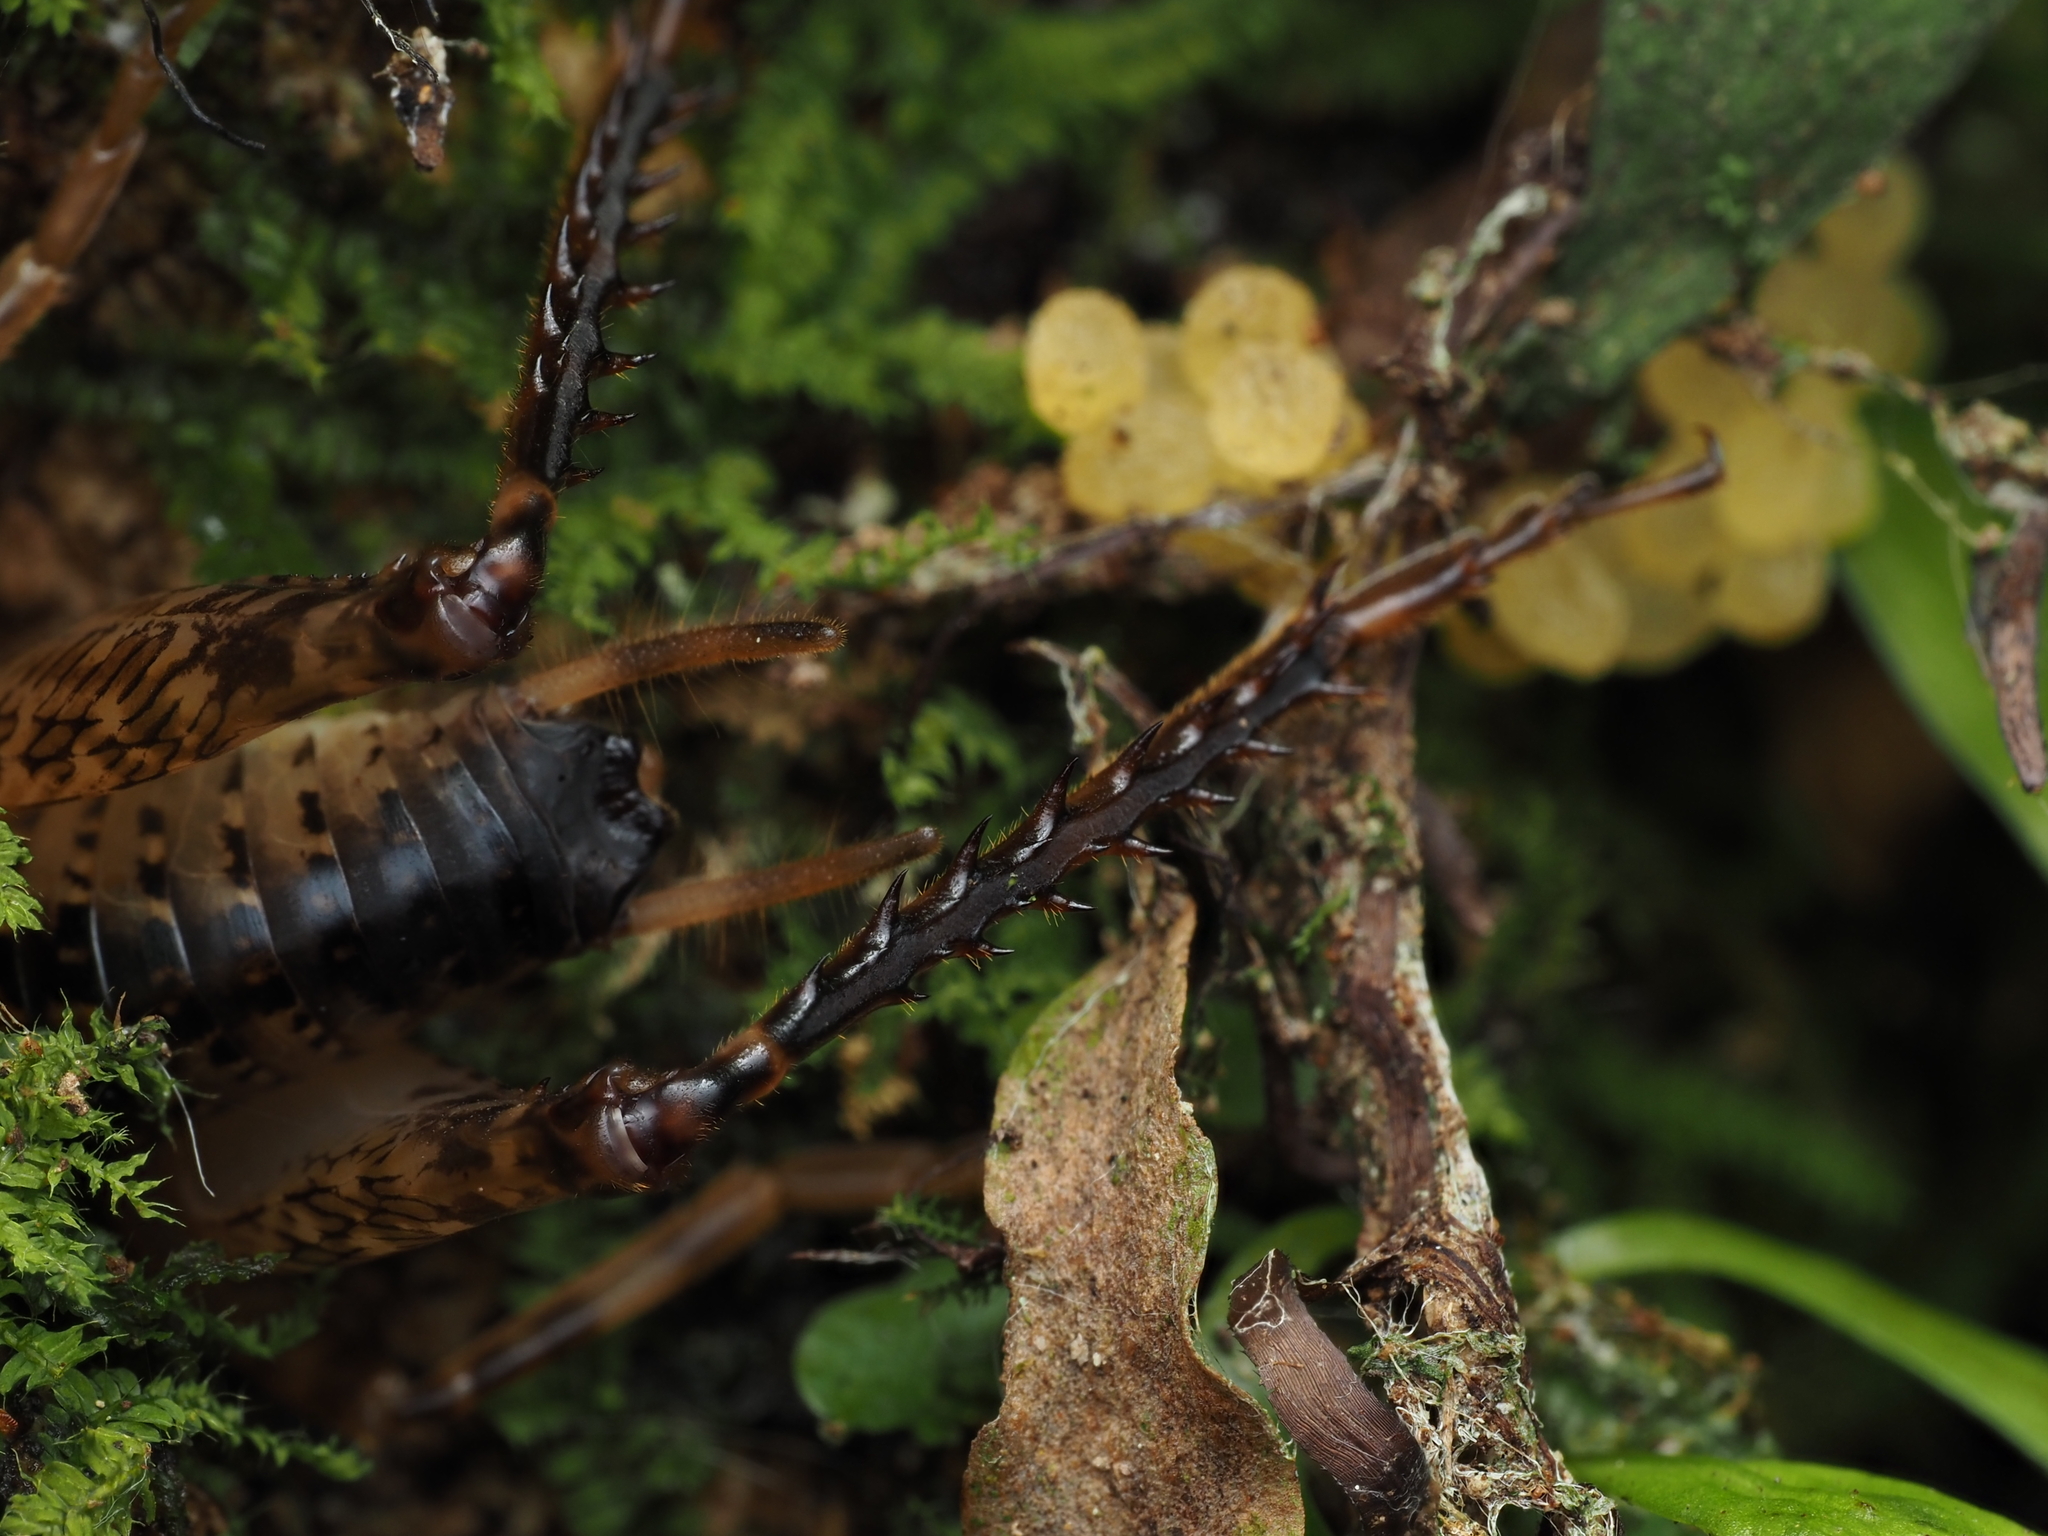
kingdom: Animalia
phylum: Arthropoda
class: Insecta
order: Orthoptera
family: Rhaphidophoridae
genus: Talitropsis
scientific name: Talitropsis sedilloti
